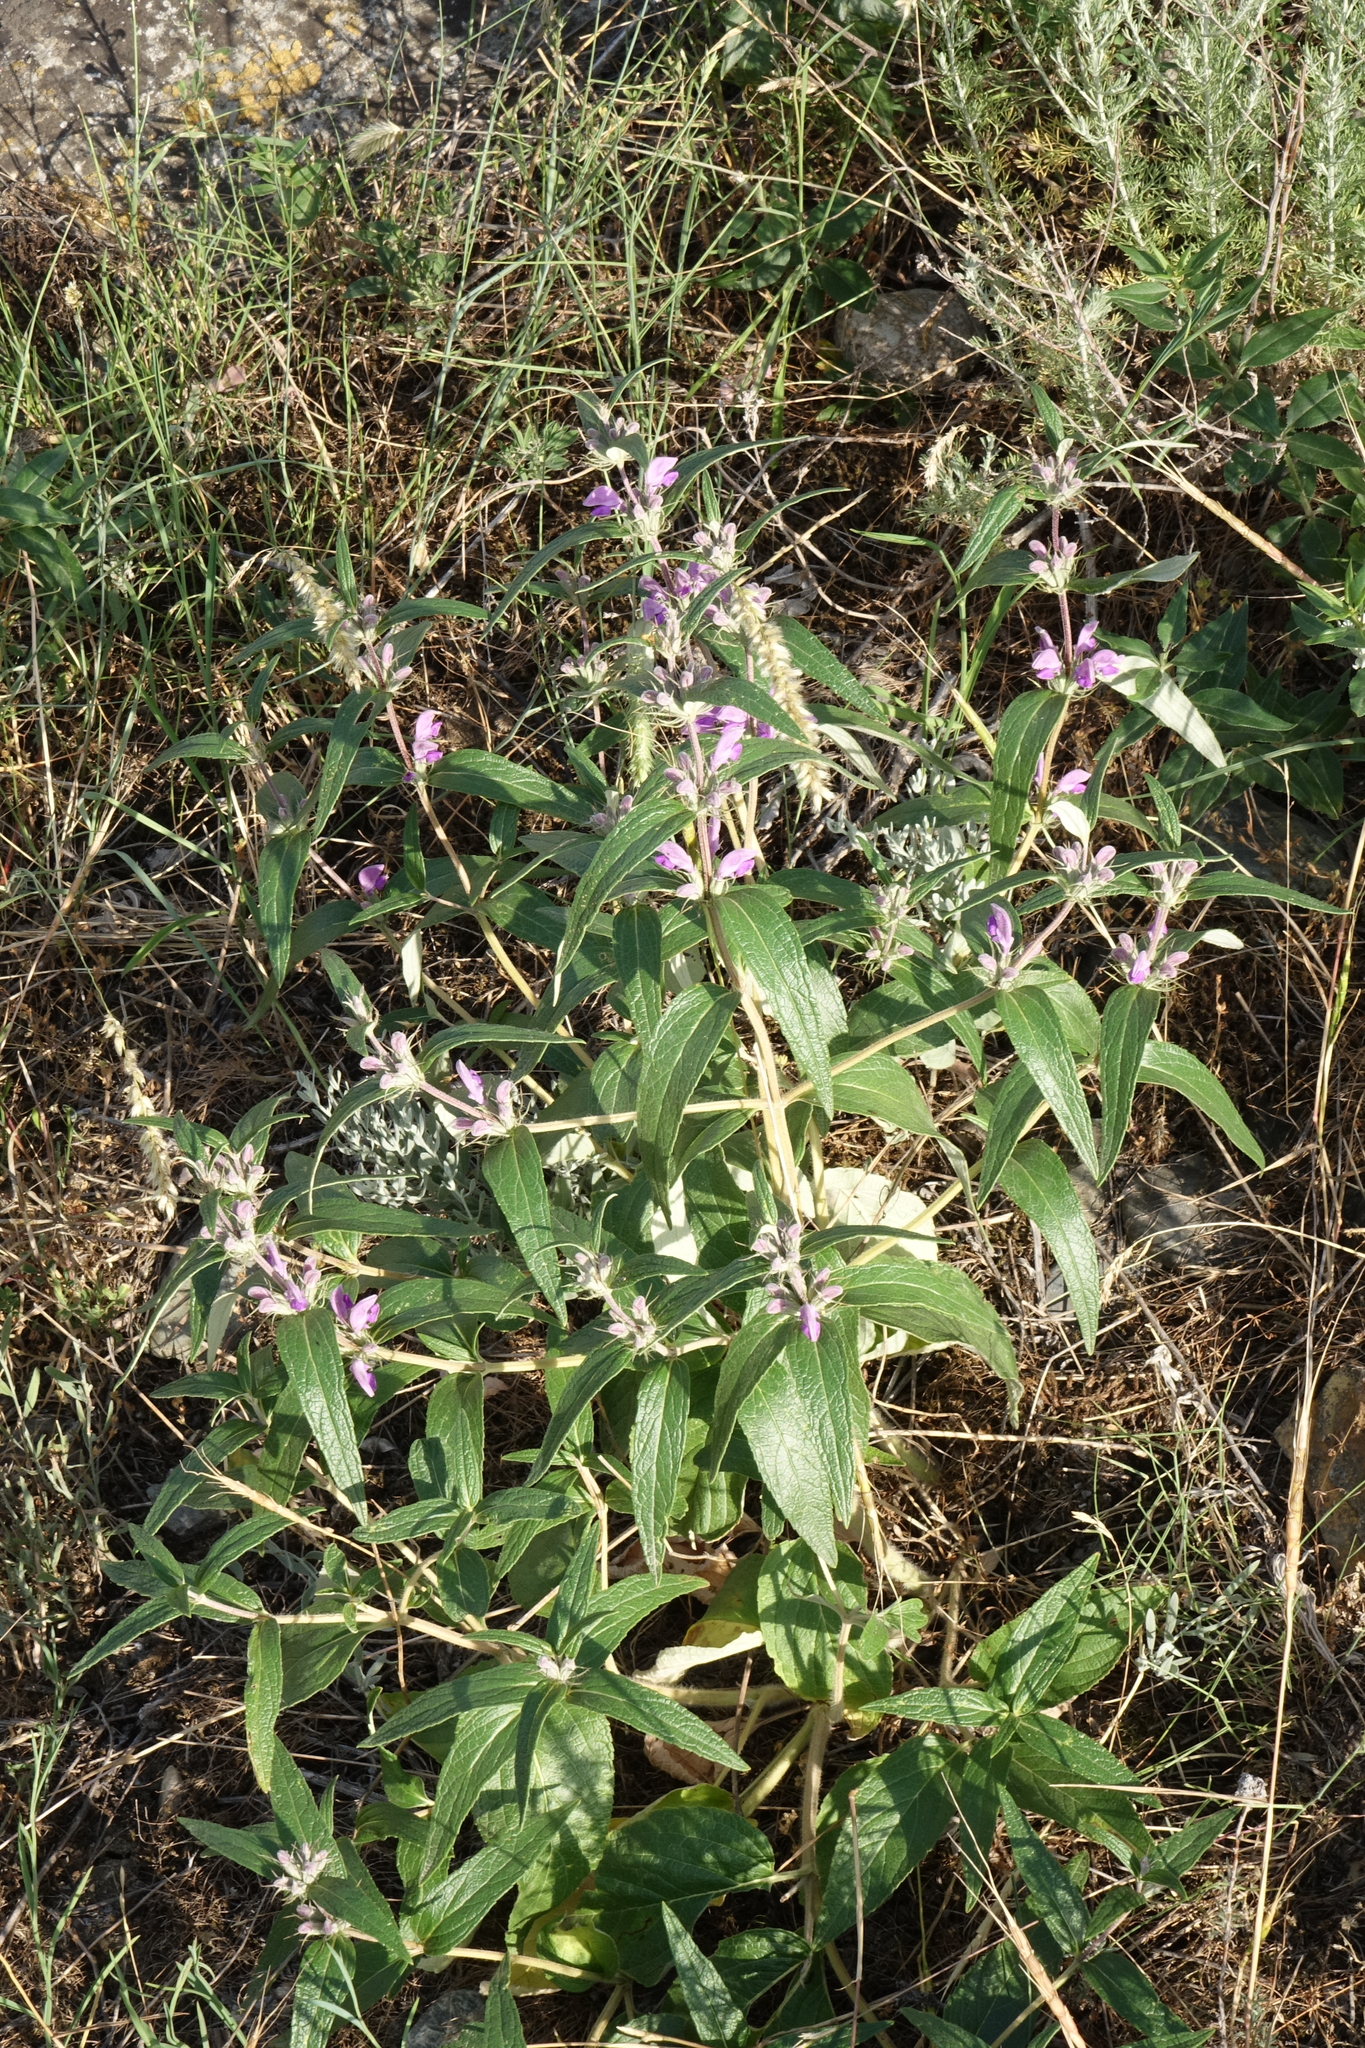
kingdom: Plantae
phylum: Tracheophyta
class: Magnoliopsida
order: Lamiales
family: Lamiaceae
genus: Phlomis
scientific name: Phlomis herba-venti
